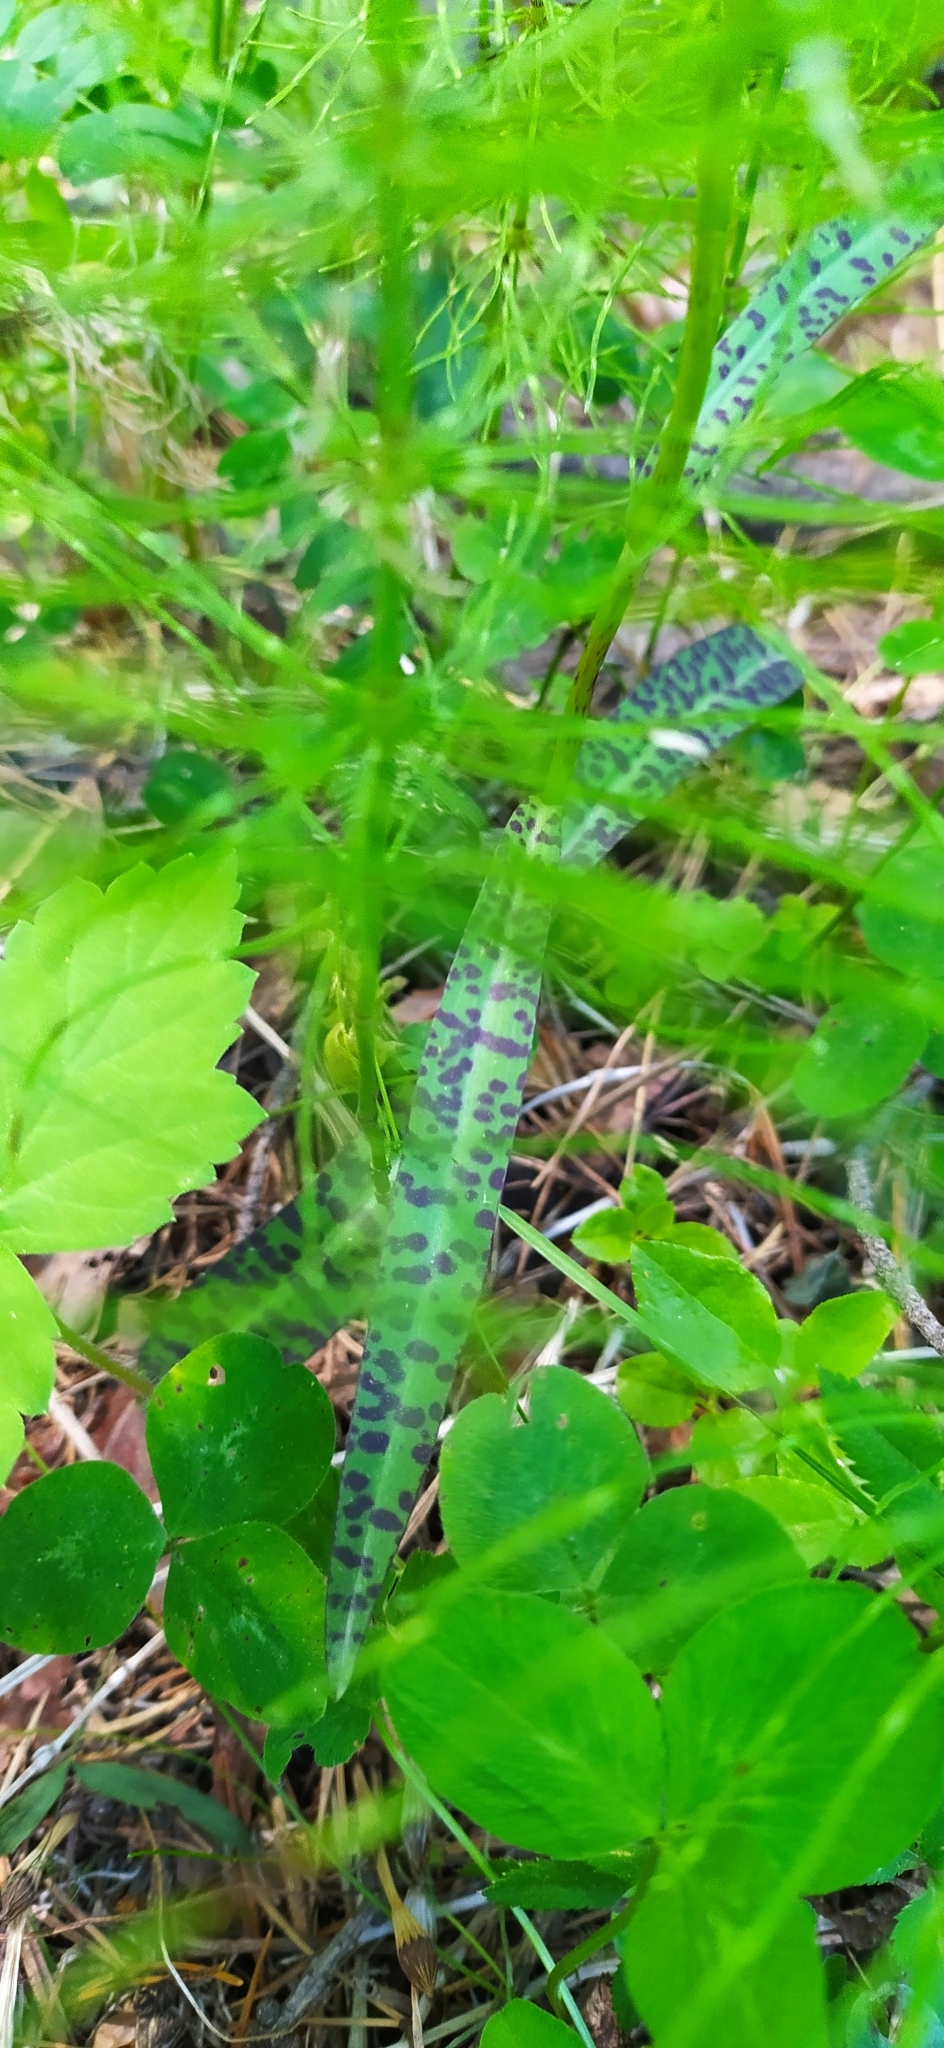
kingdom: Plantae
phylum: Tracheophyta
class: Liliopsida
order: Asparagales
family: Orchidaceae
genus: Dactylorhiza
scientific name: Dactylorhiza maculata
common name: Heath spotted-orchid
